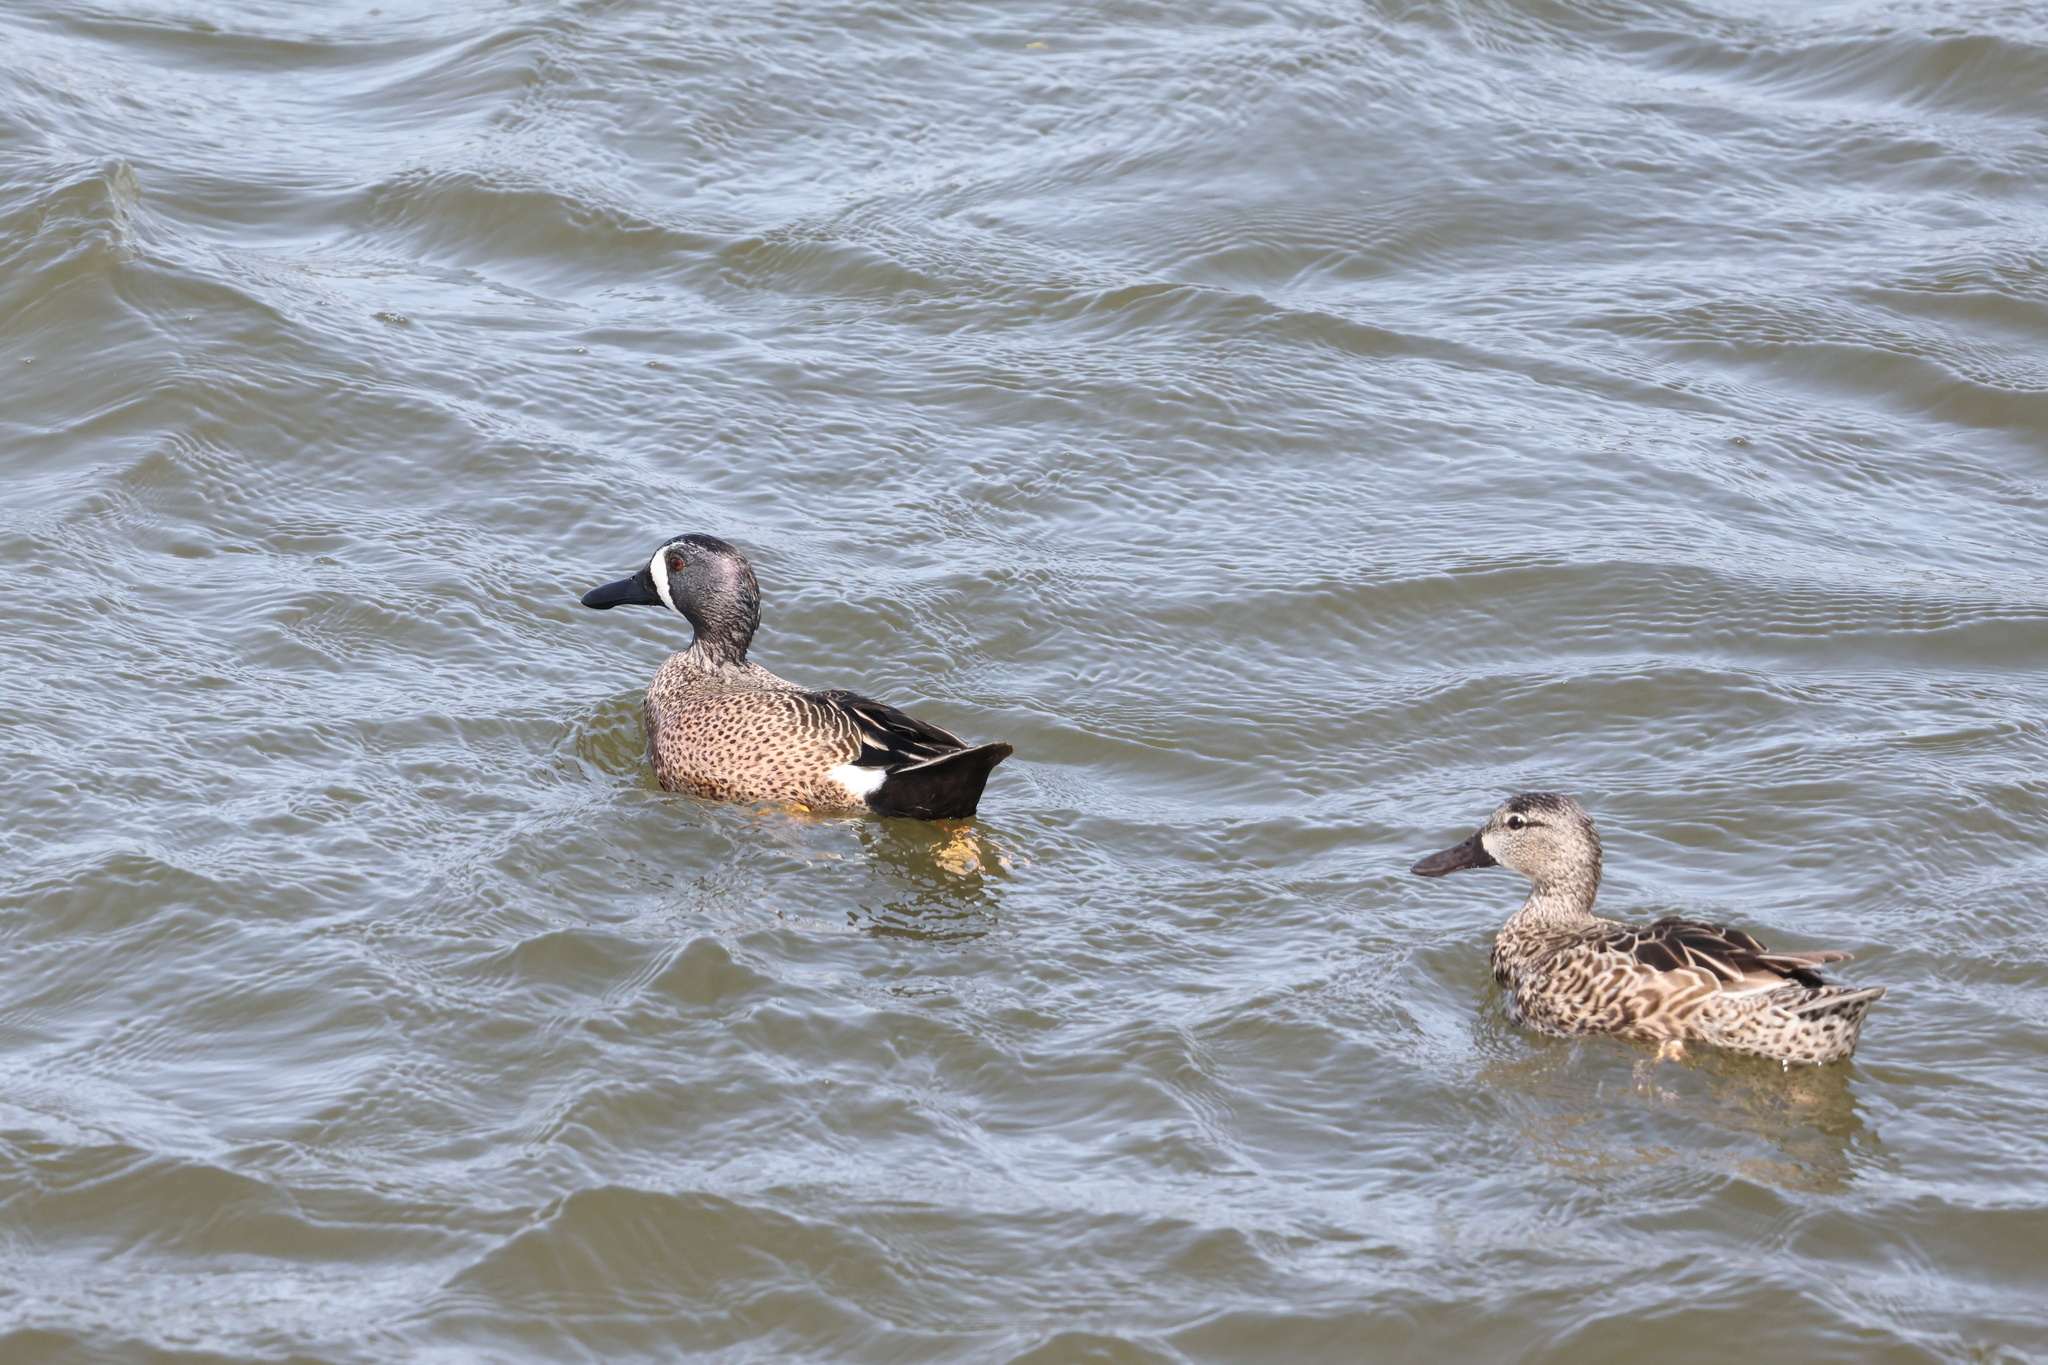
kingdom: Animalia
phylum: Chordata
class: Aves
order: Anseriformes
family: Anatidae
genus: Spatula
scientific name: Spatula discors
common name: Blue-winged teal
